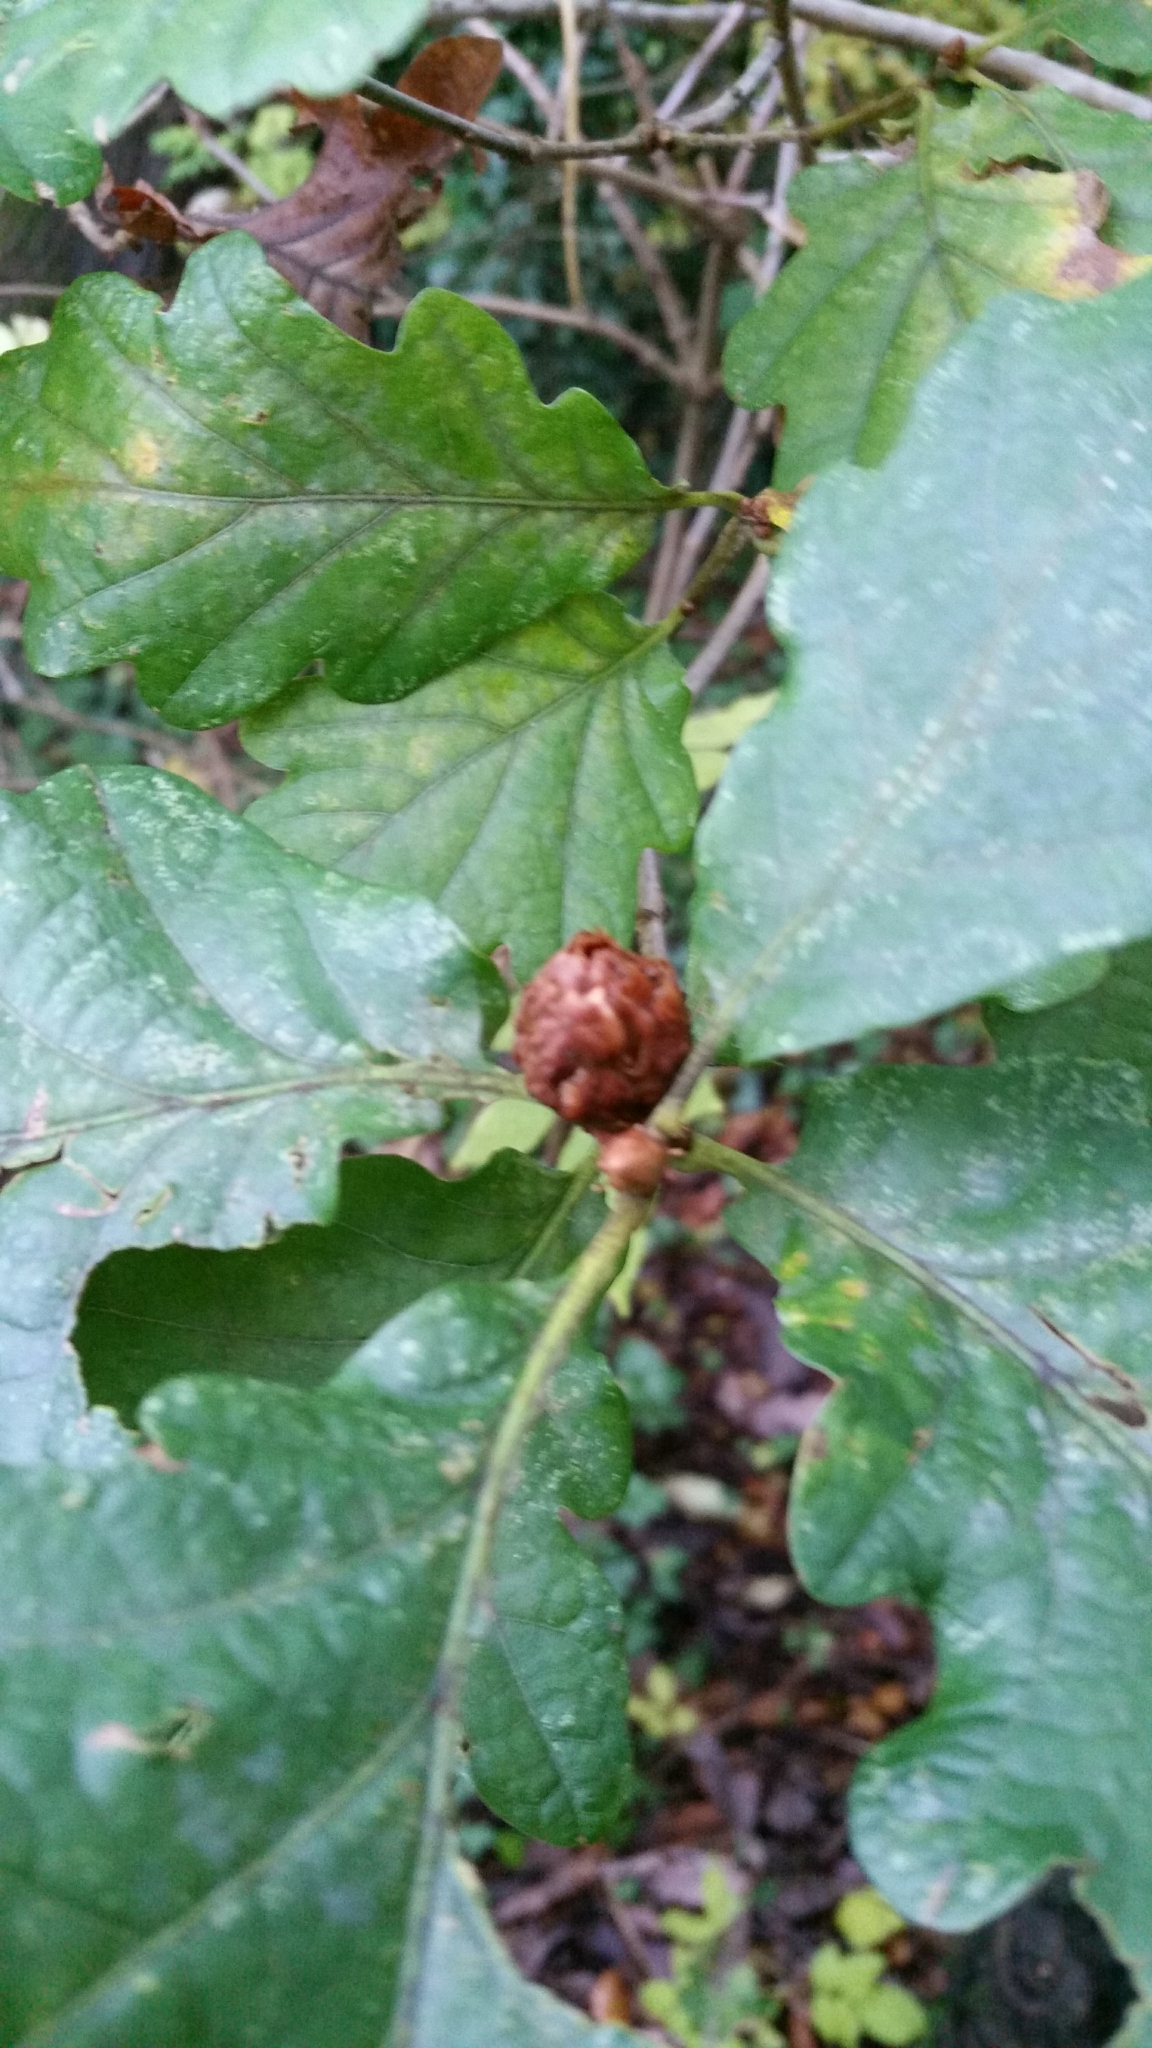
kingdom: Animalia
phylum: Arthropoda
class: Insecta
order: Hymenoptera
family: Cynipidae
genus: Andricus
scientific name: Andricus foecundatrix
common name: Artichoke gall
